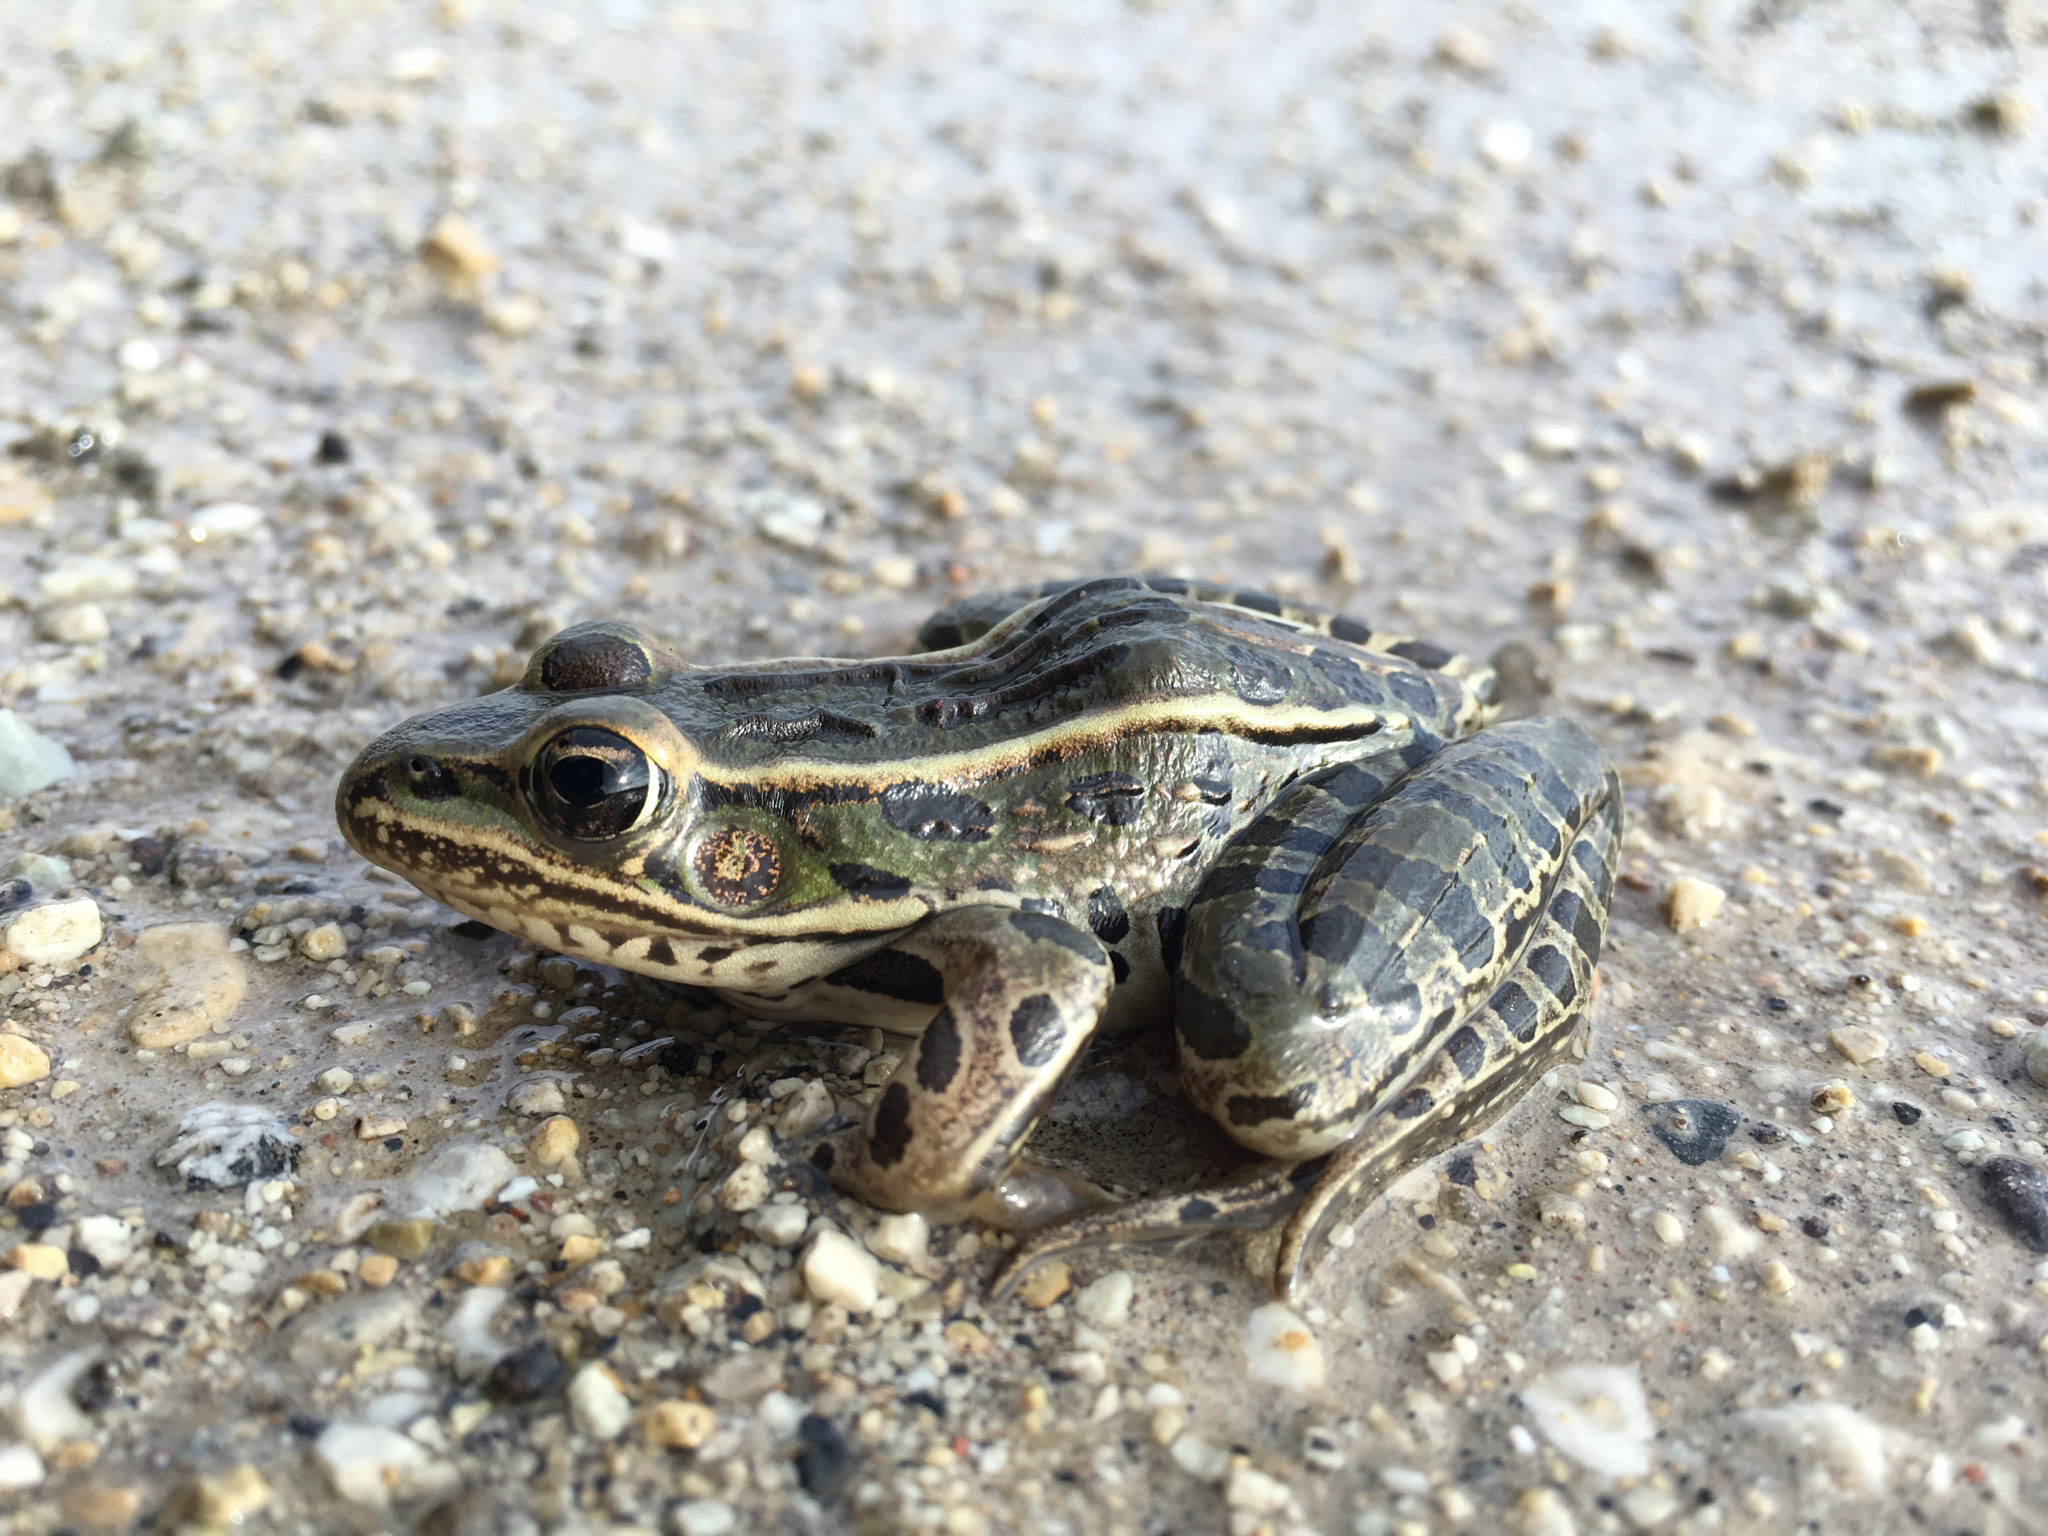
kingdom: Animalia
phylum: Chordata
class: Amphibia
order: Anura
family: Ranidae
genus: Lithobates
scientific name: Lithobates pipiens
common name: Northern leopard frog
